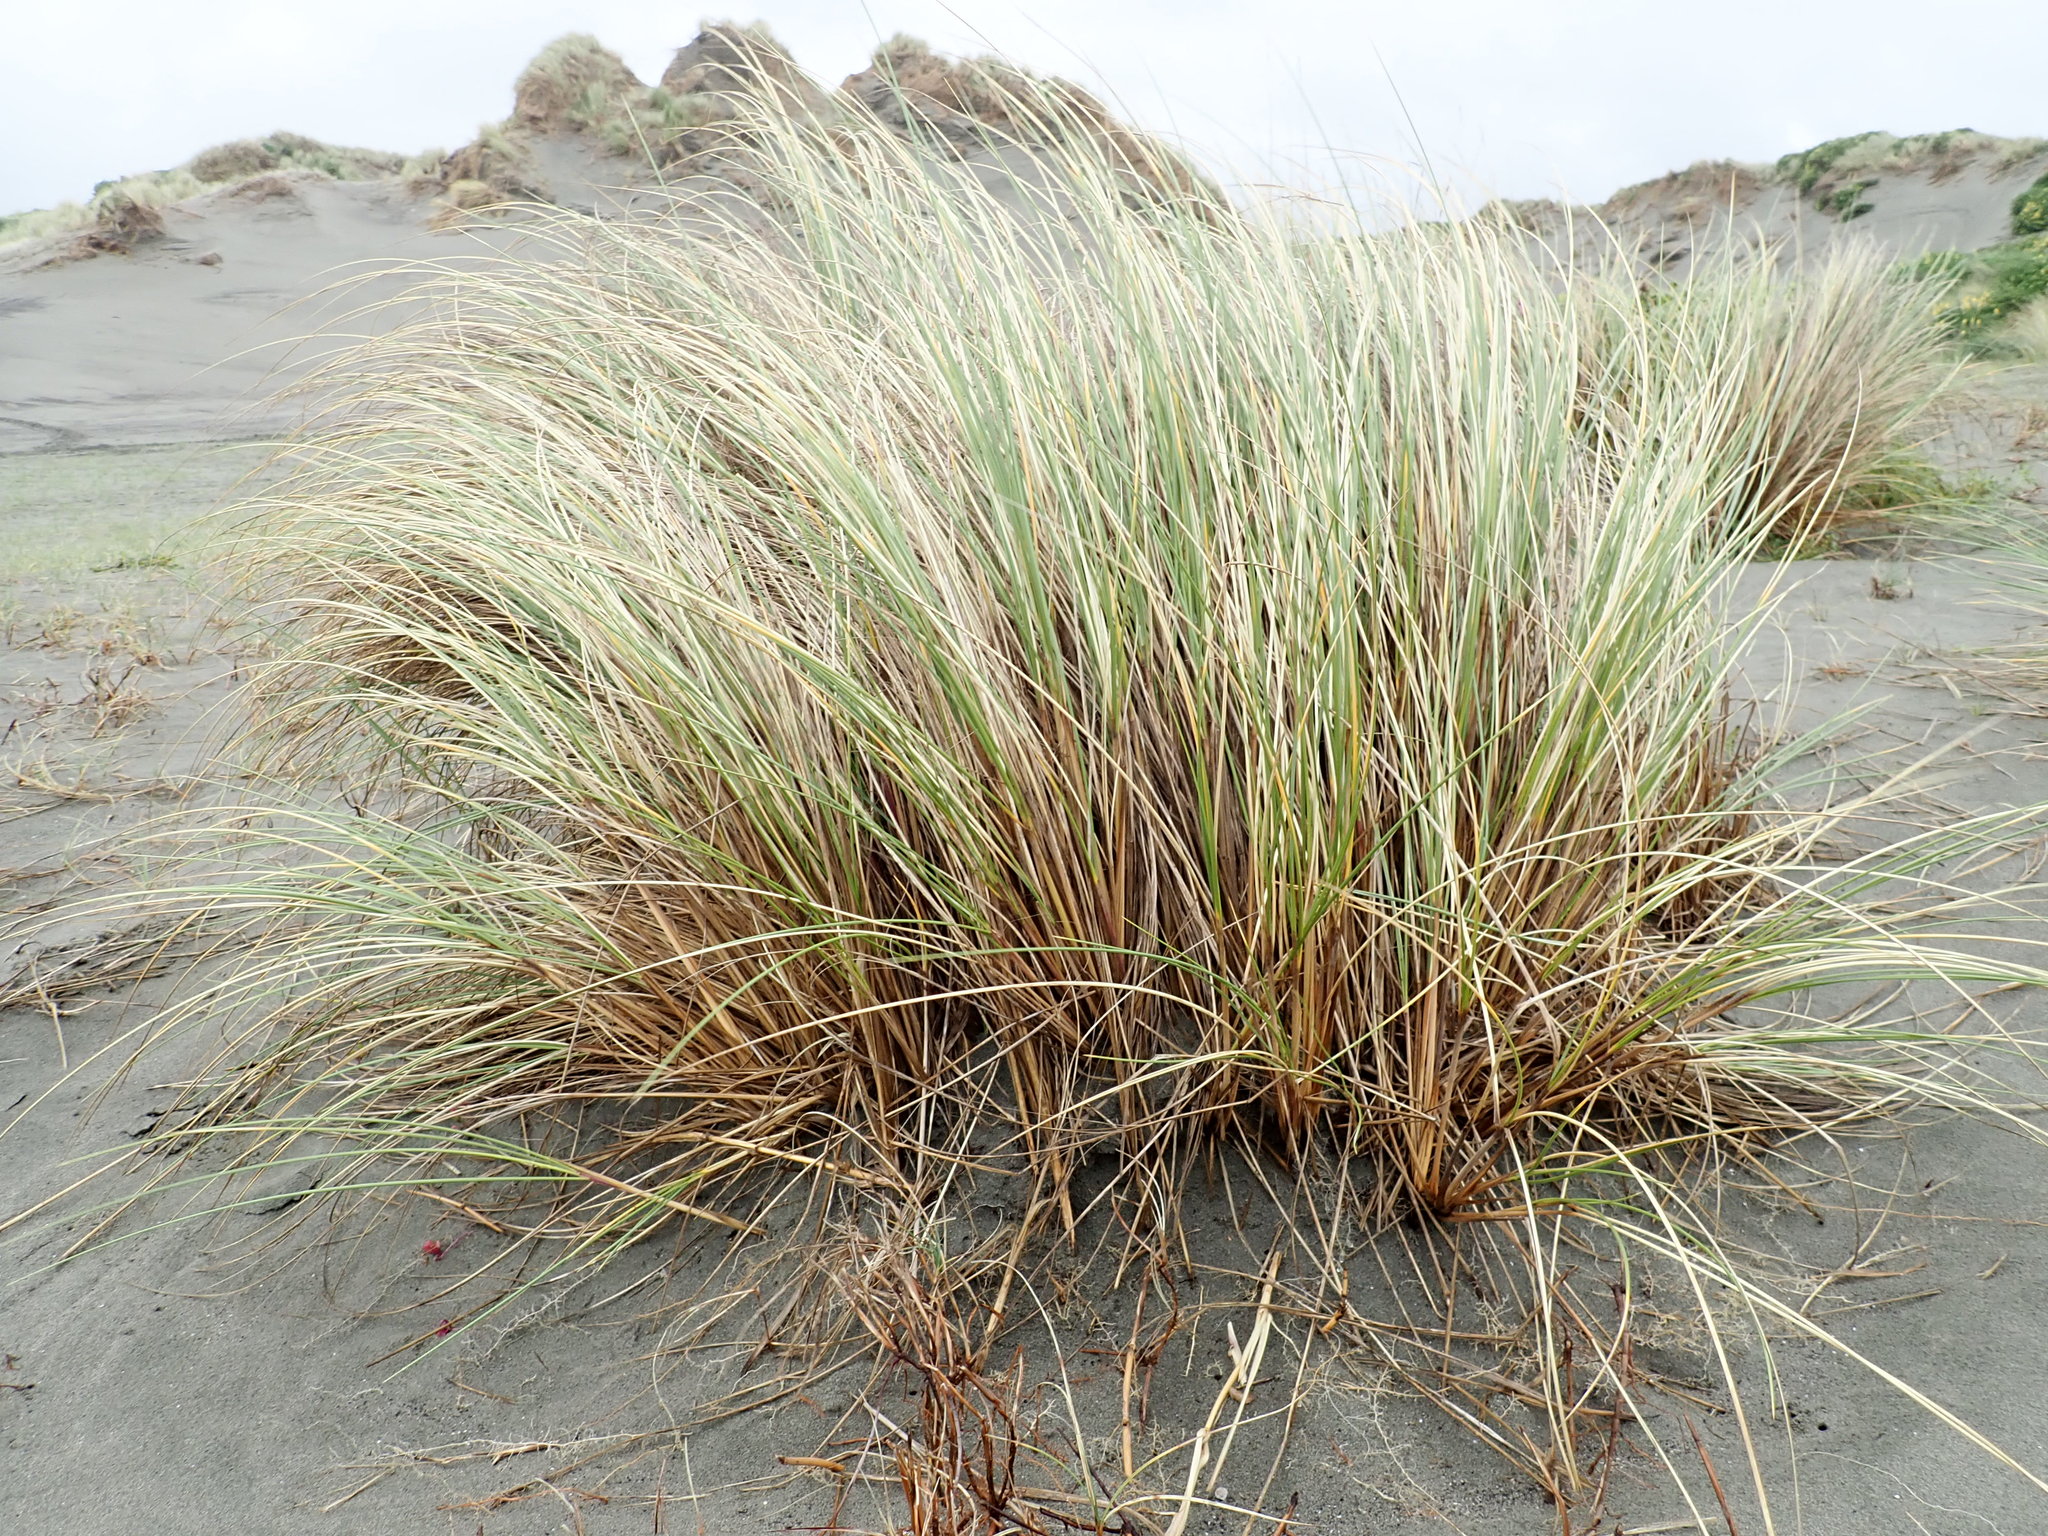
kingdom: Plantae
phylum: Tracheophyta
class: Liliopsida
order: Poales
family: Poaceae
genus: Calamagrostis
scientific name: Calamagrostis arenaria
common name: European beachgrass
